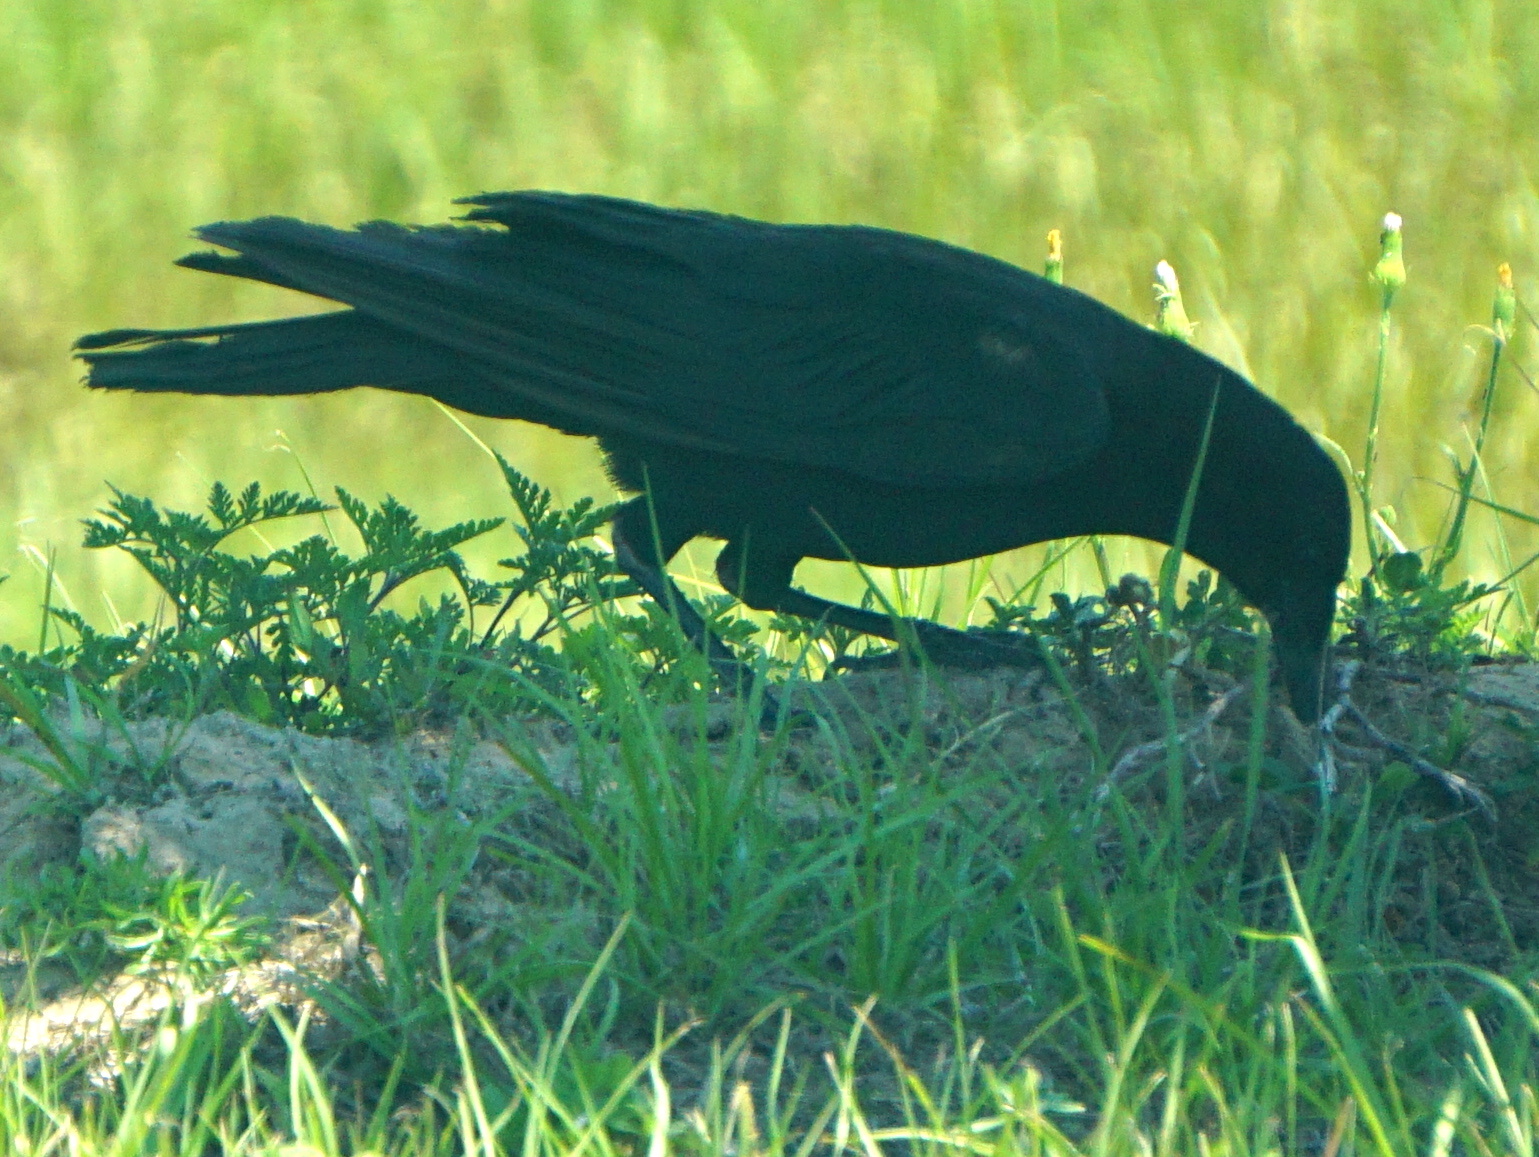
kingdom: Animalia
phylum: Chordata
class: Aves
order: Passeriformes
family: Corvidae
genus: Corvus
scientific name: Corvus
